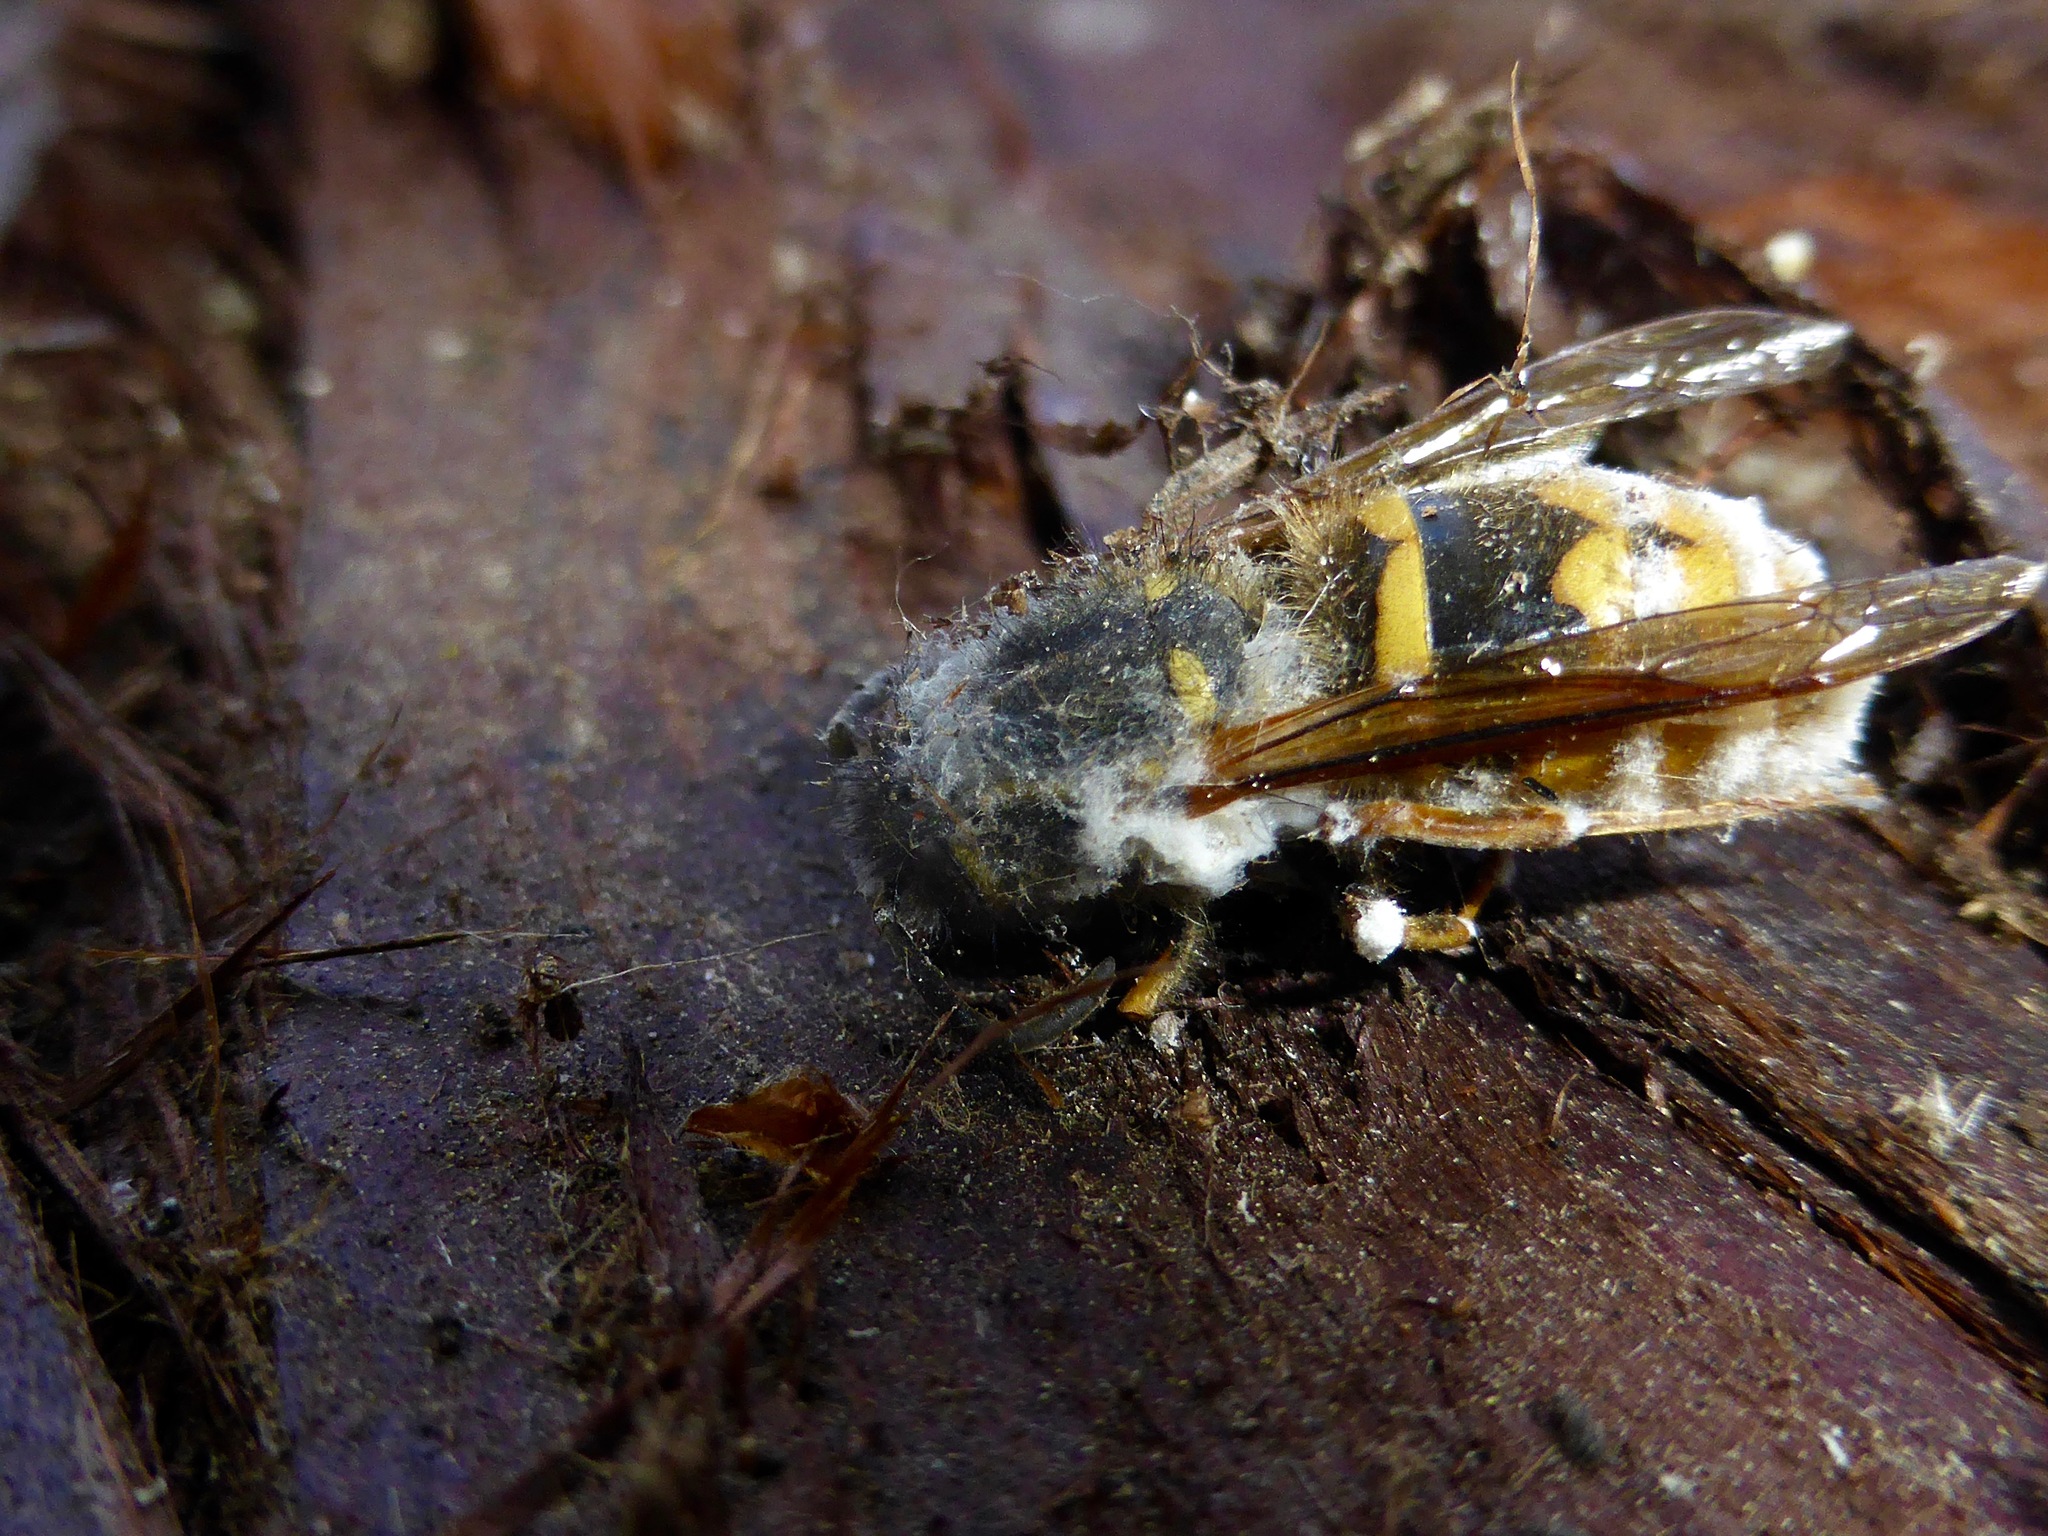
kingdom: Animalia
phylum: Arthropoda
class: Insecta
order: Hymenoptera
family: Vespidae
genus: Vespula
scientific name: Vespula vulgaris
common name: Common wasp
